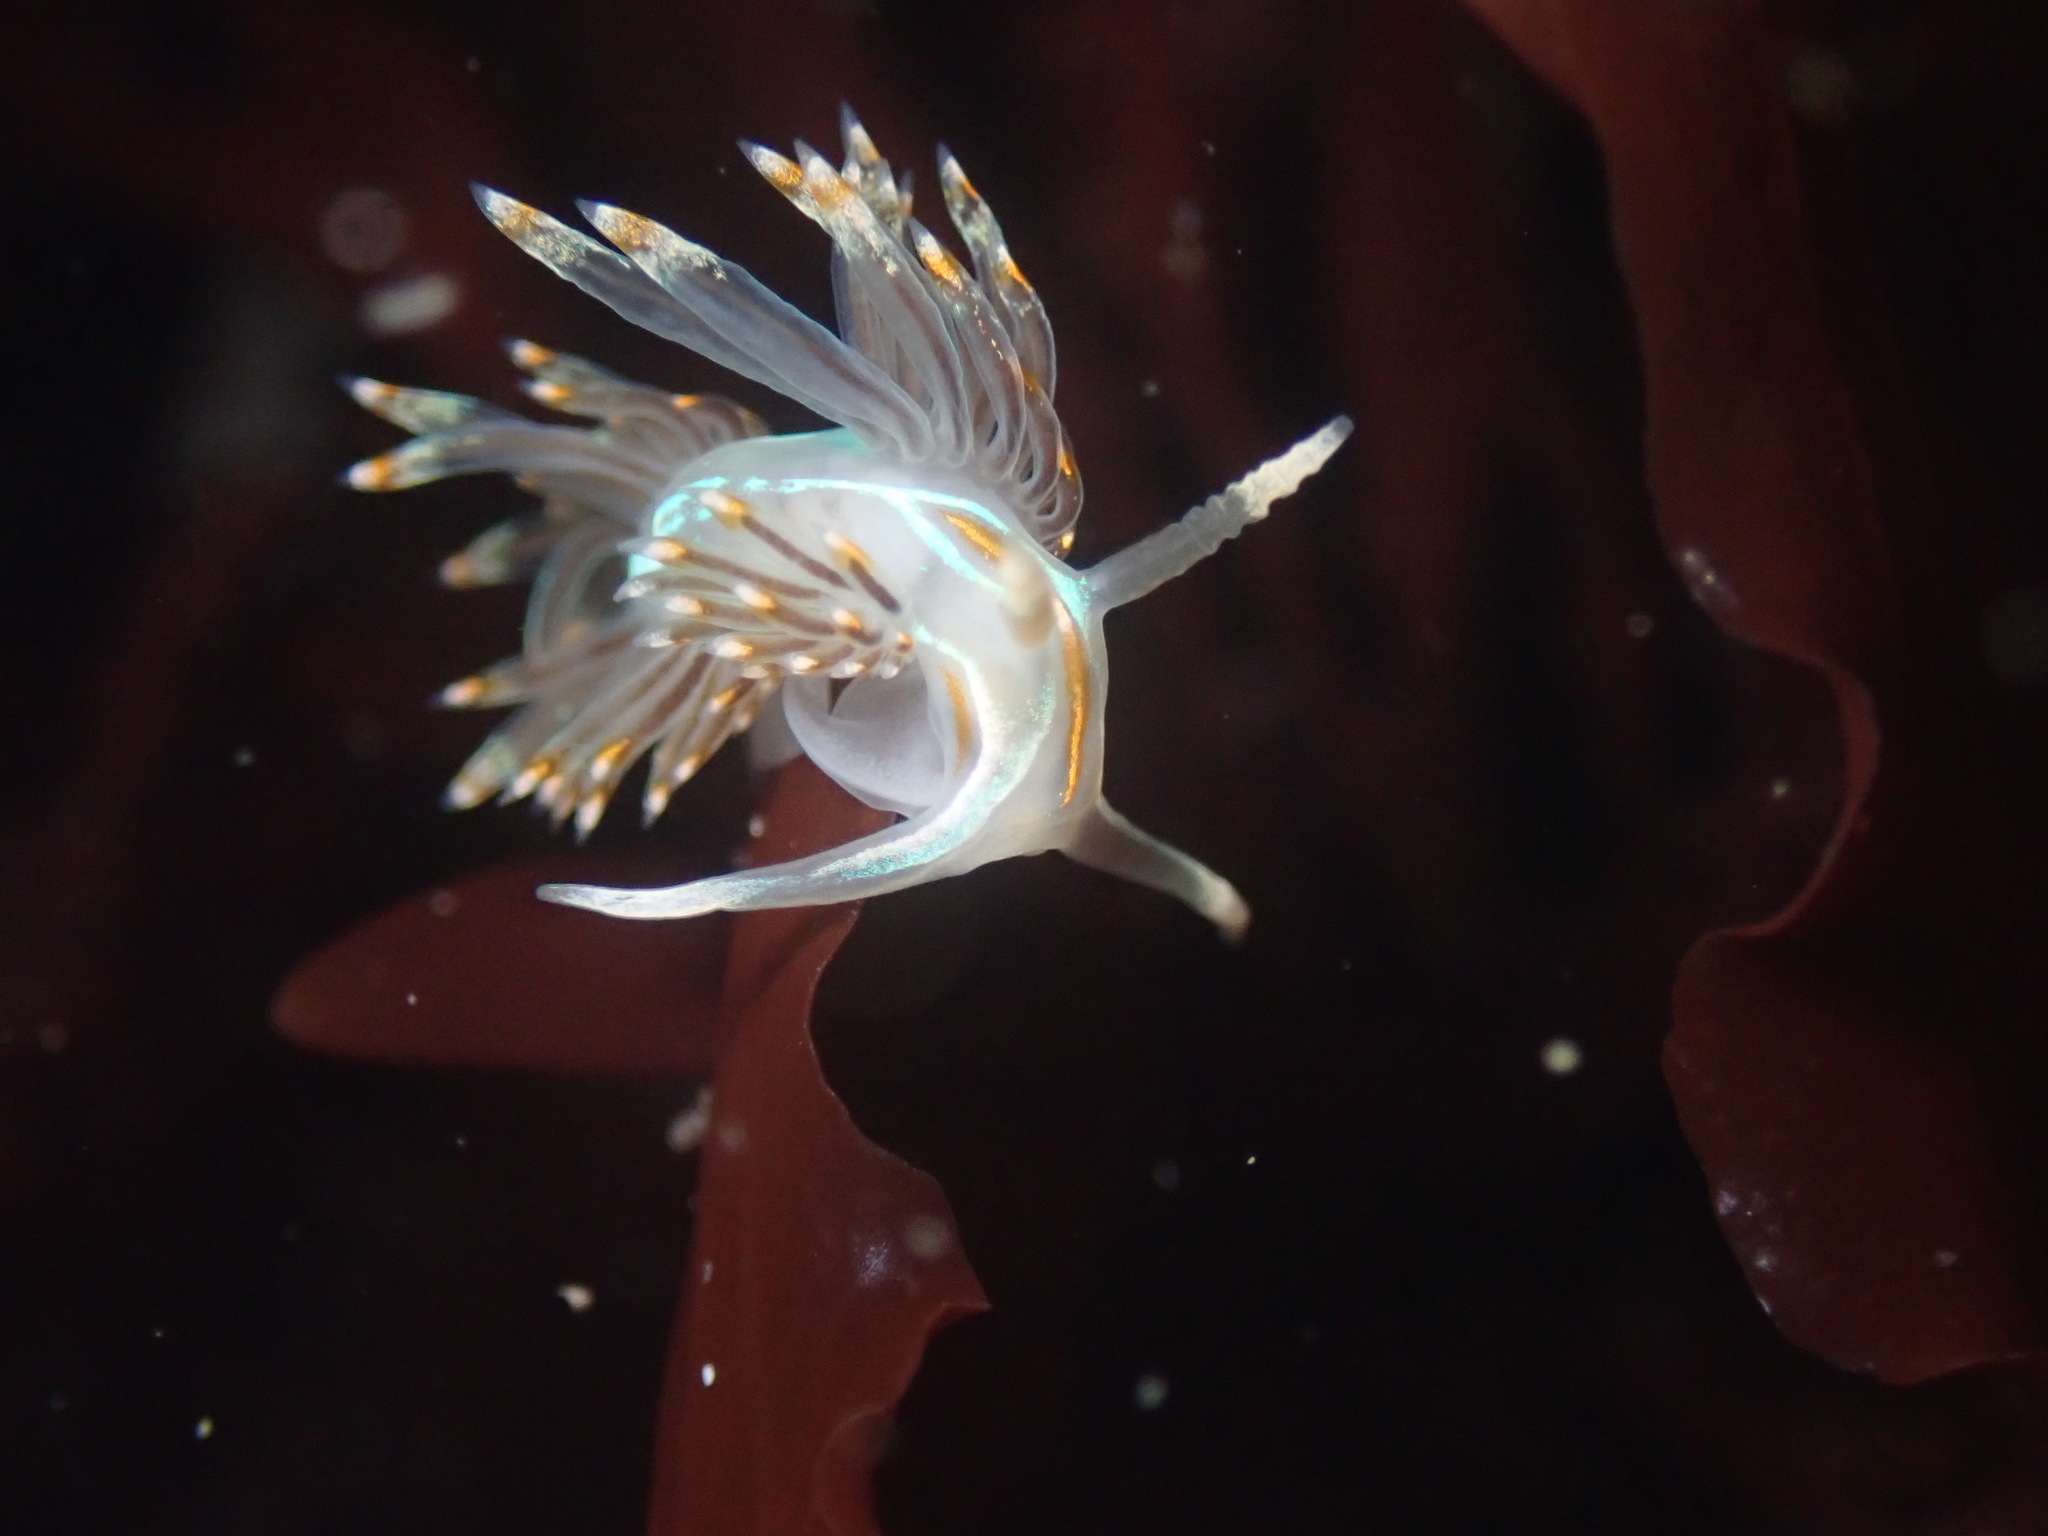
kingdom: Animalia
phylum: Mollusca
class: Gastropoda
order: Nudibranchia
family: Myrrhinidae
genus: Hermissenda
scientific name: Hermissenda opalescens
